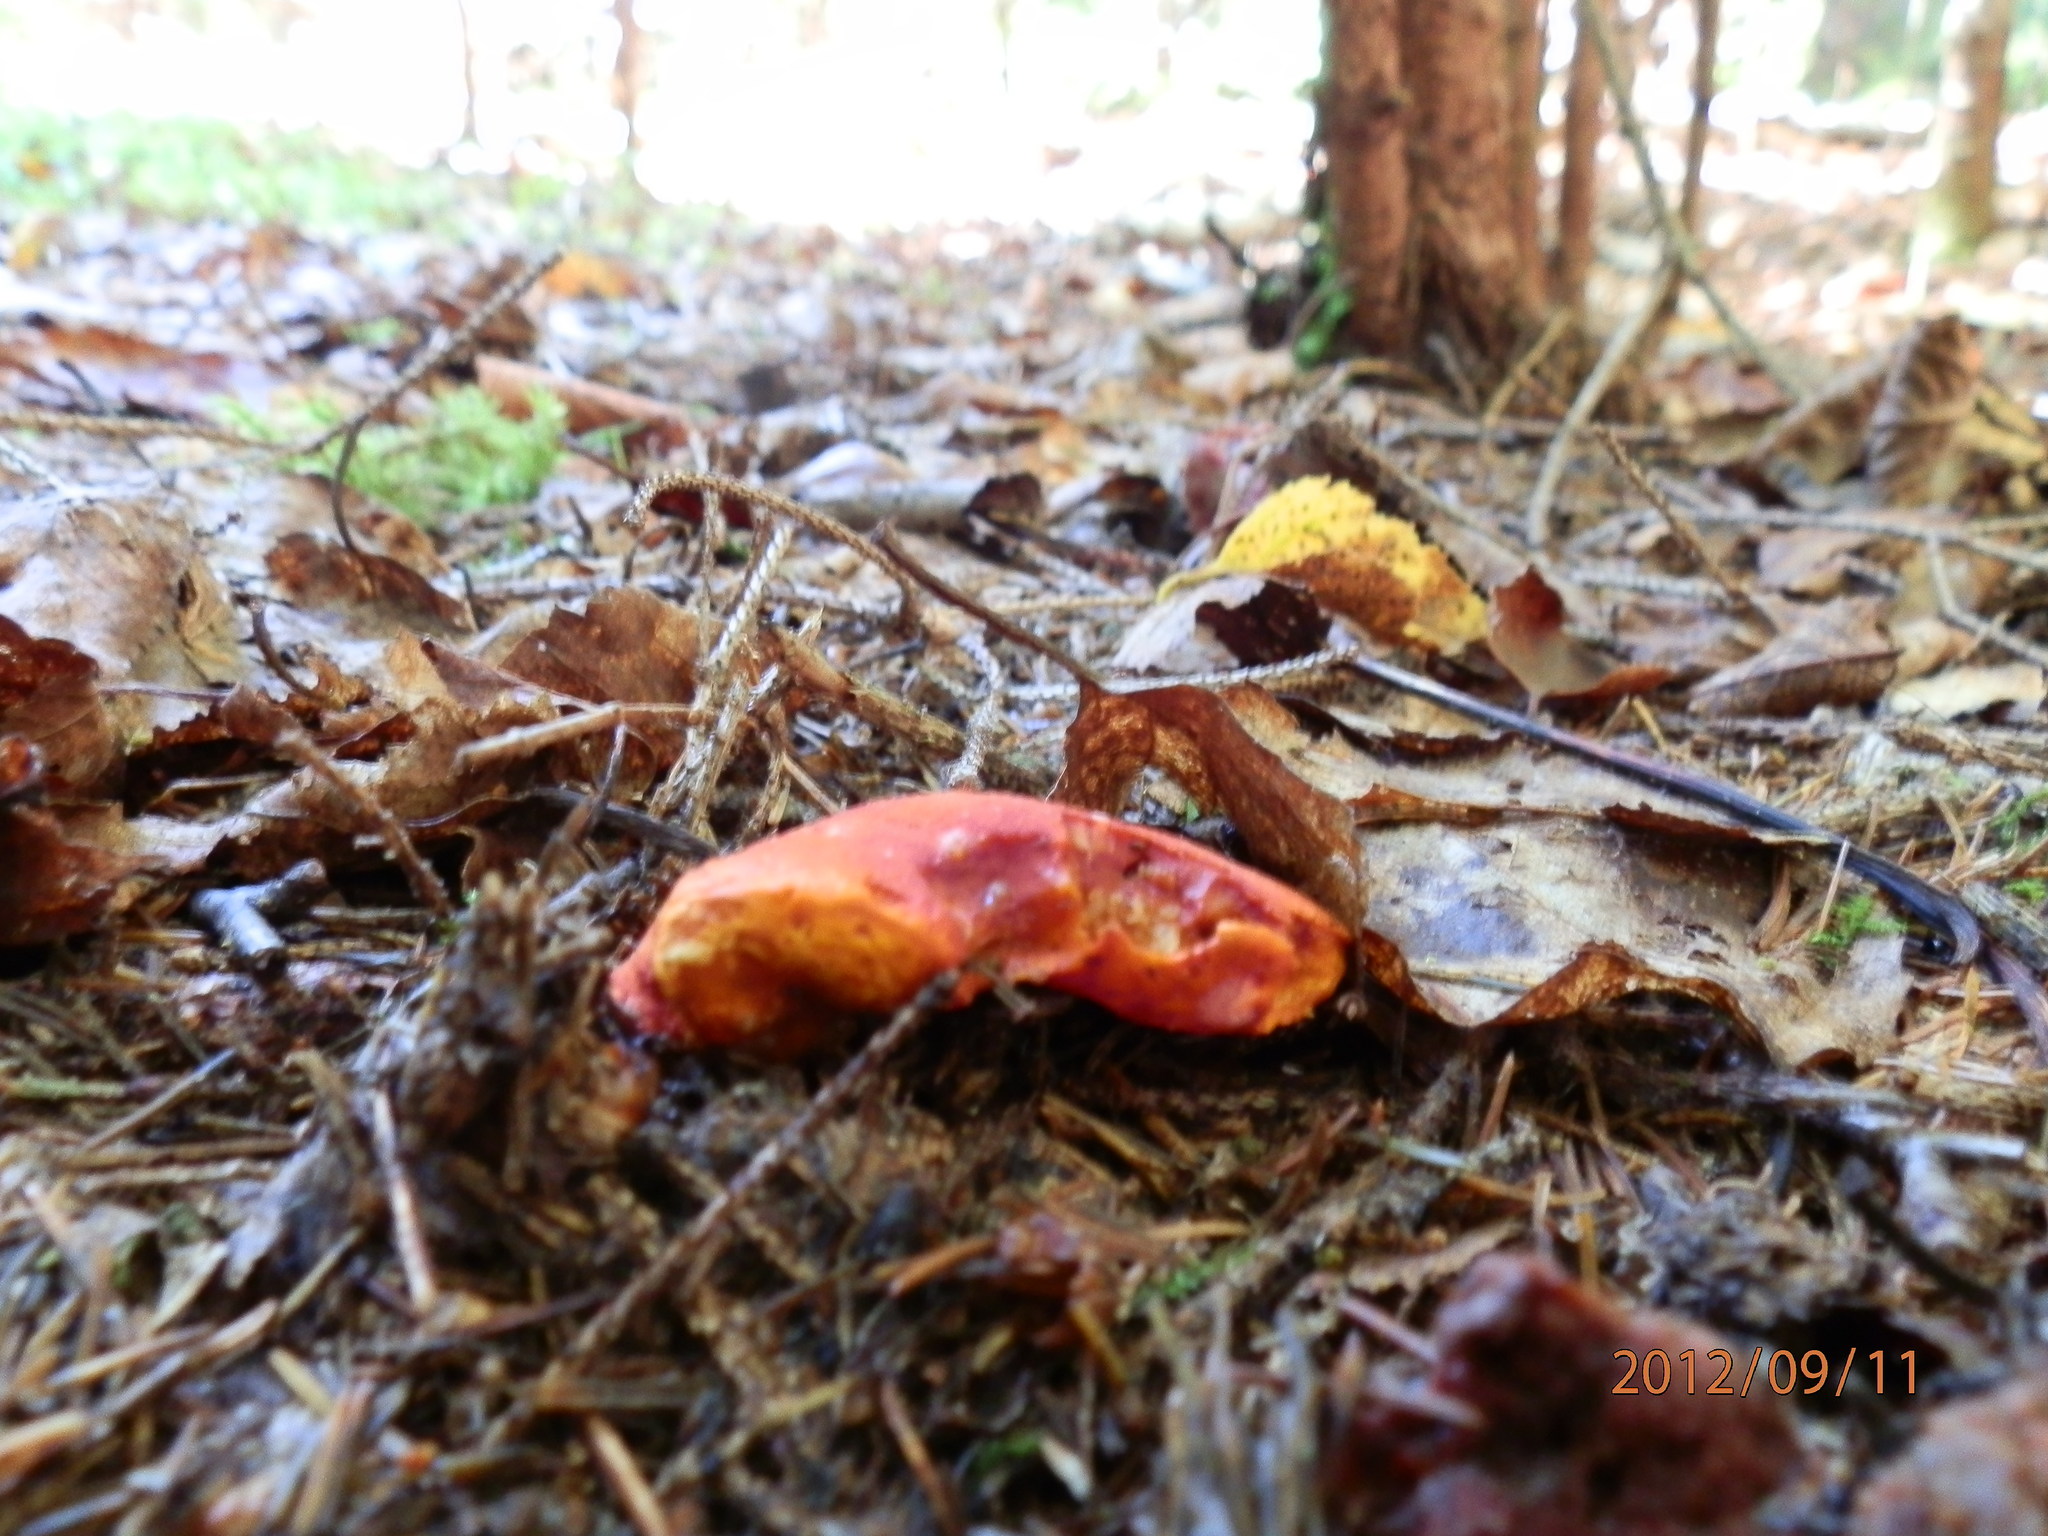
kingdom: Fungi
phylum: Ascomycota
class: Sordariomycetes
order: Hypocreales
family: Hypocreaceae
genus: Hypomyces
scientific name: Hypomyces lactifluorum
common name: Lobster mushroom
